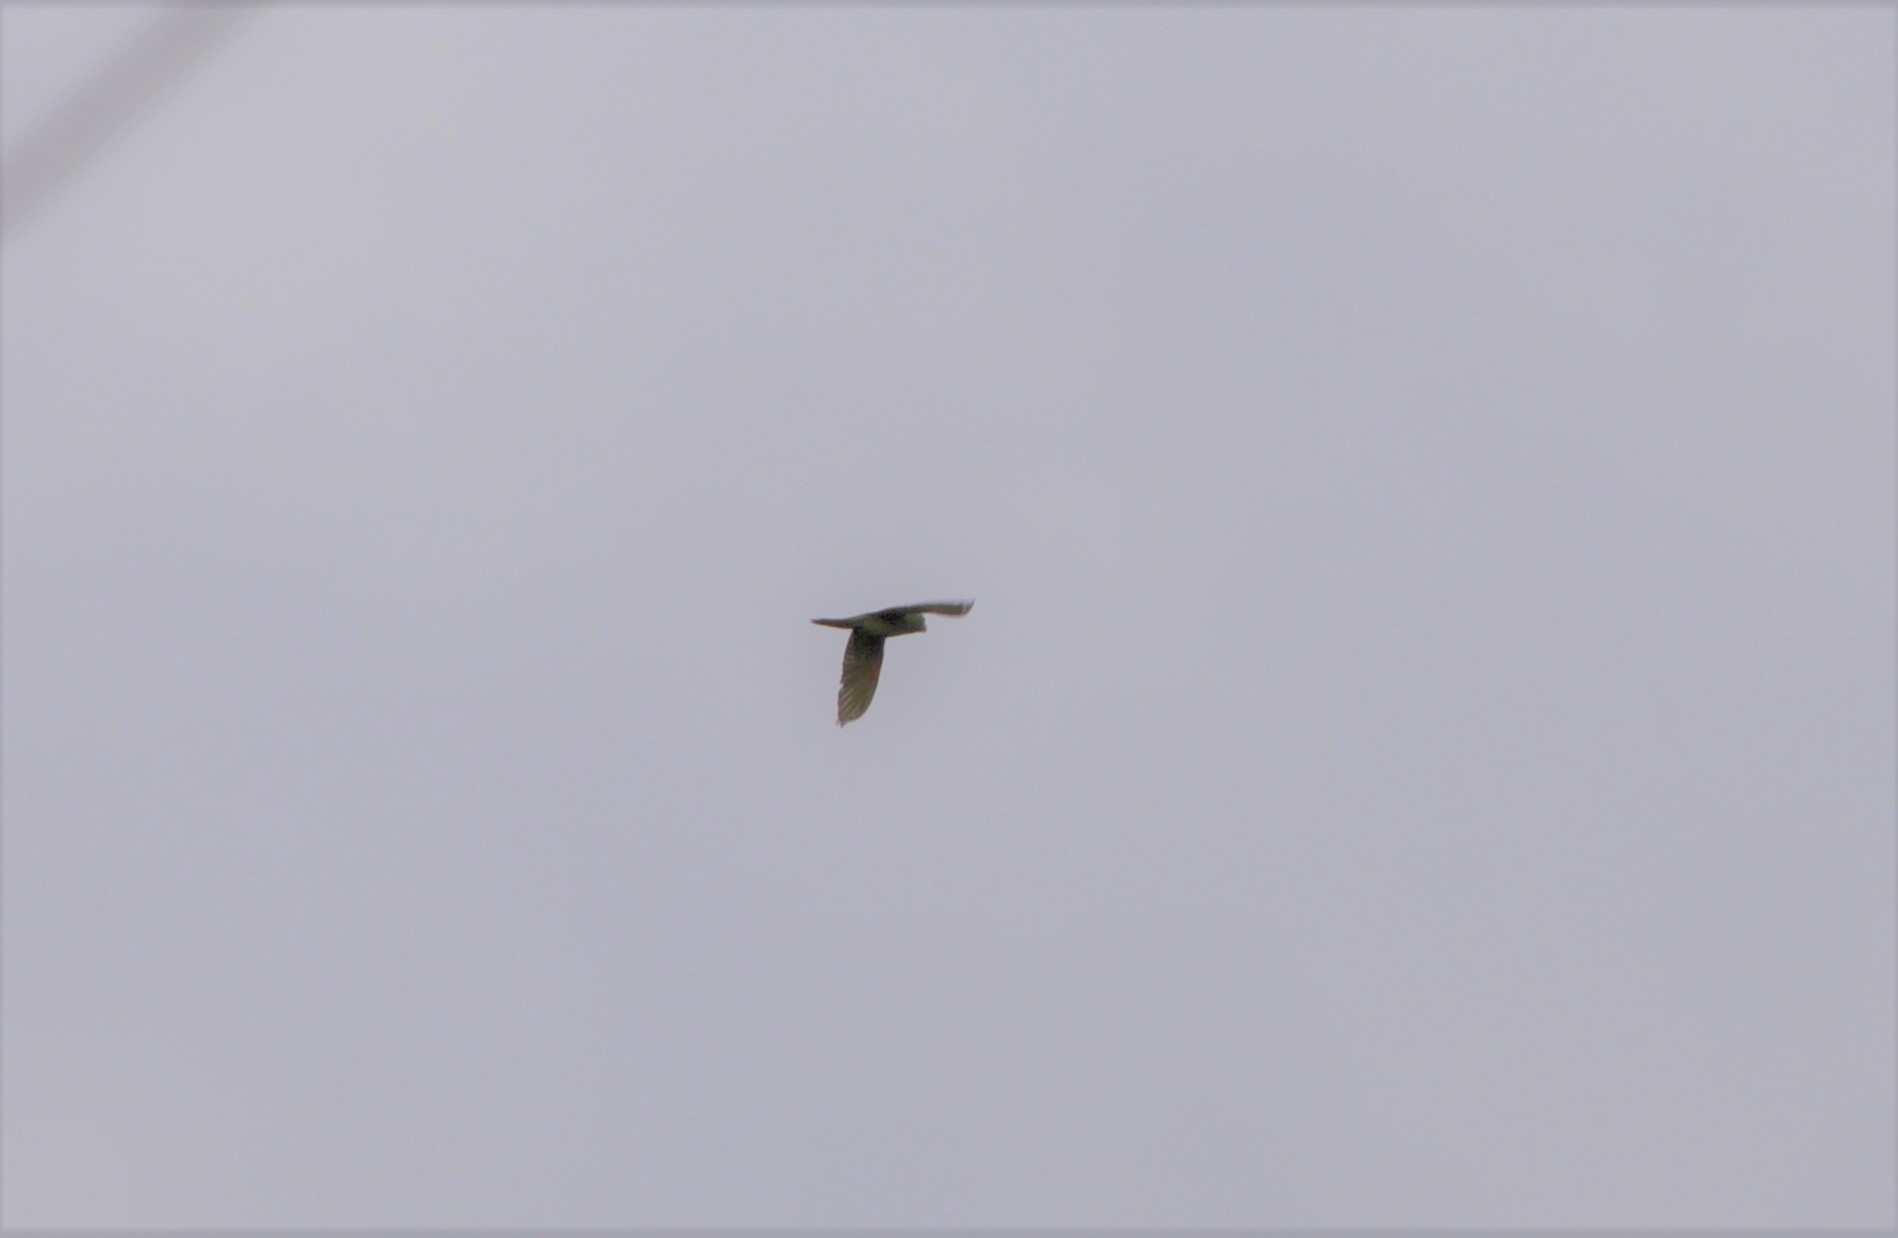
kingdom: Animalia
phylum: Chordata
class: Aves
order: Psittaciformes
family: Psittacidae
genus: Aratinga
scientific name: Aratinga finschi
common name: Crimson-fronted parakeet
